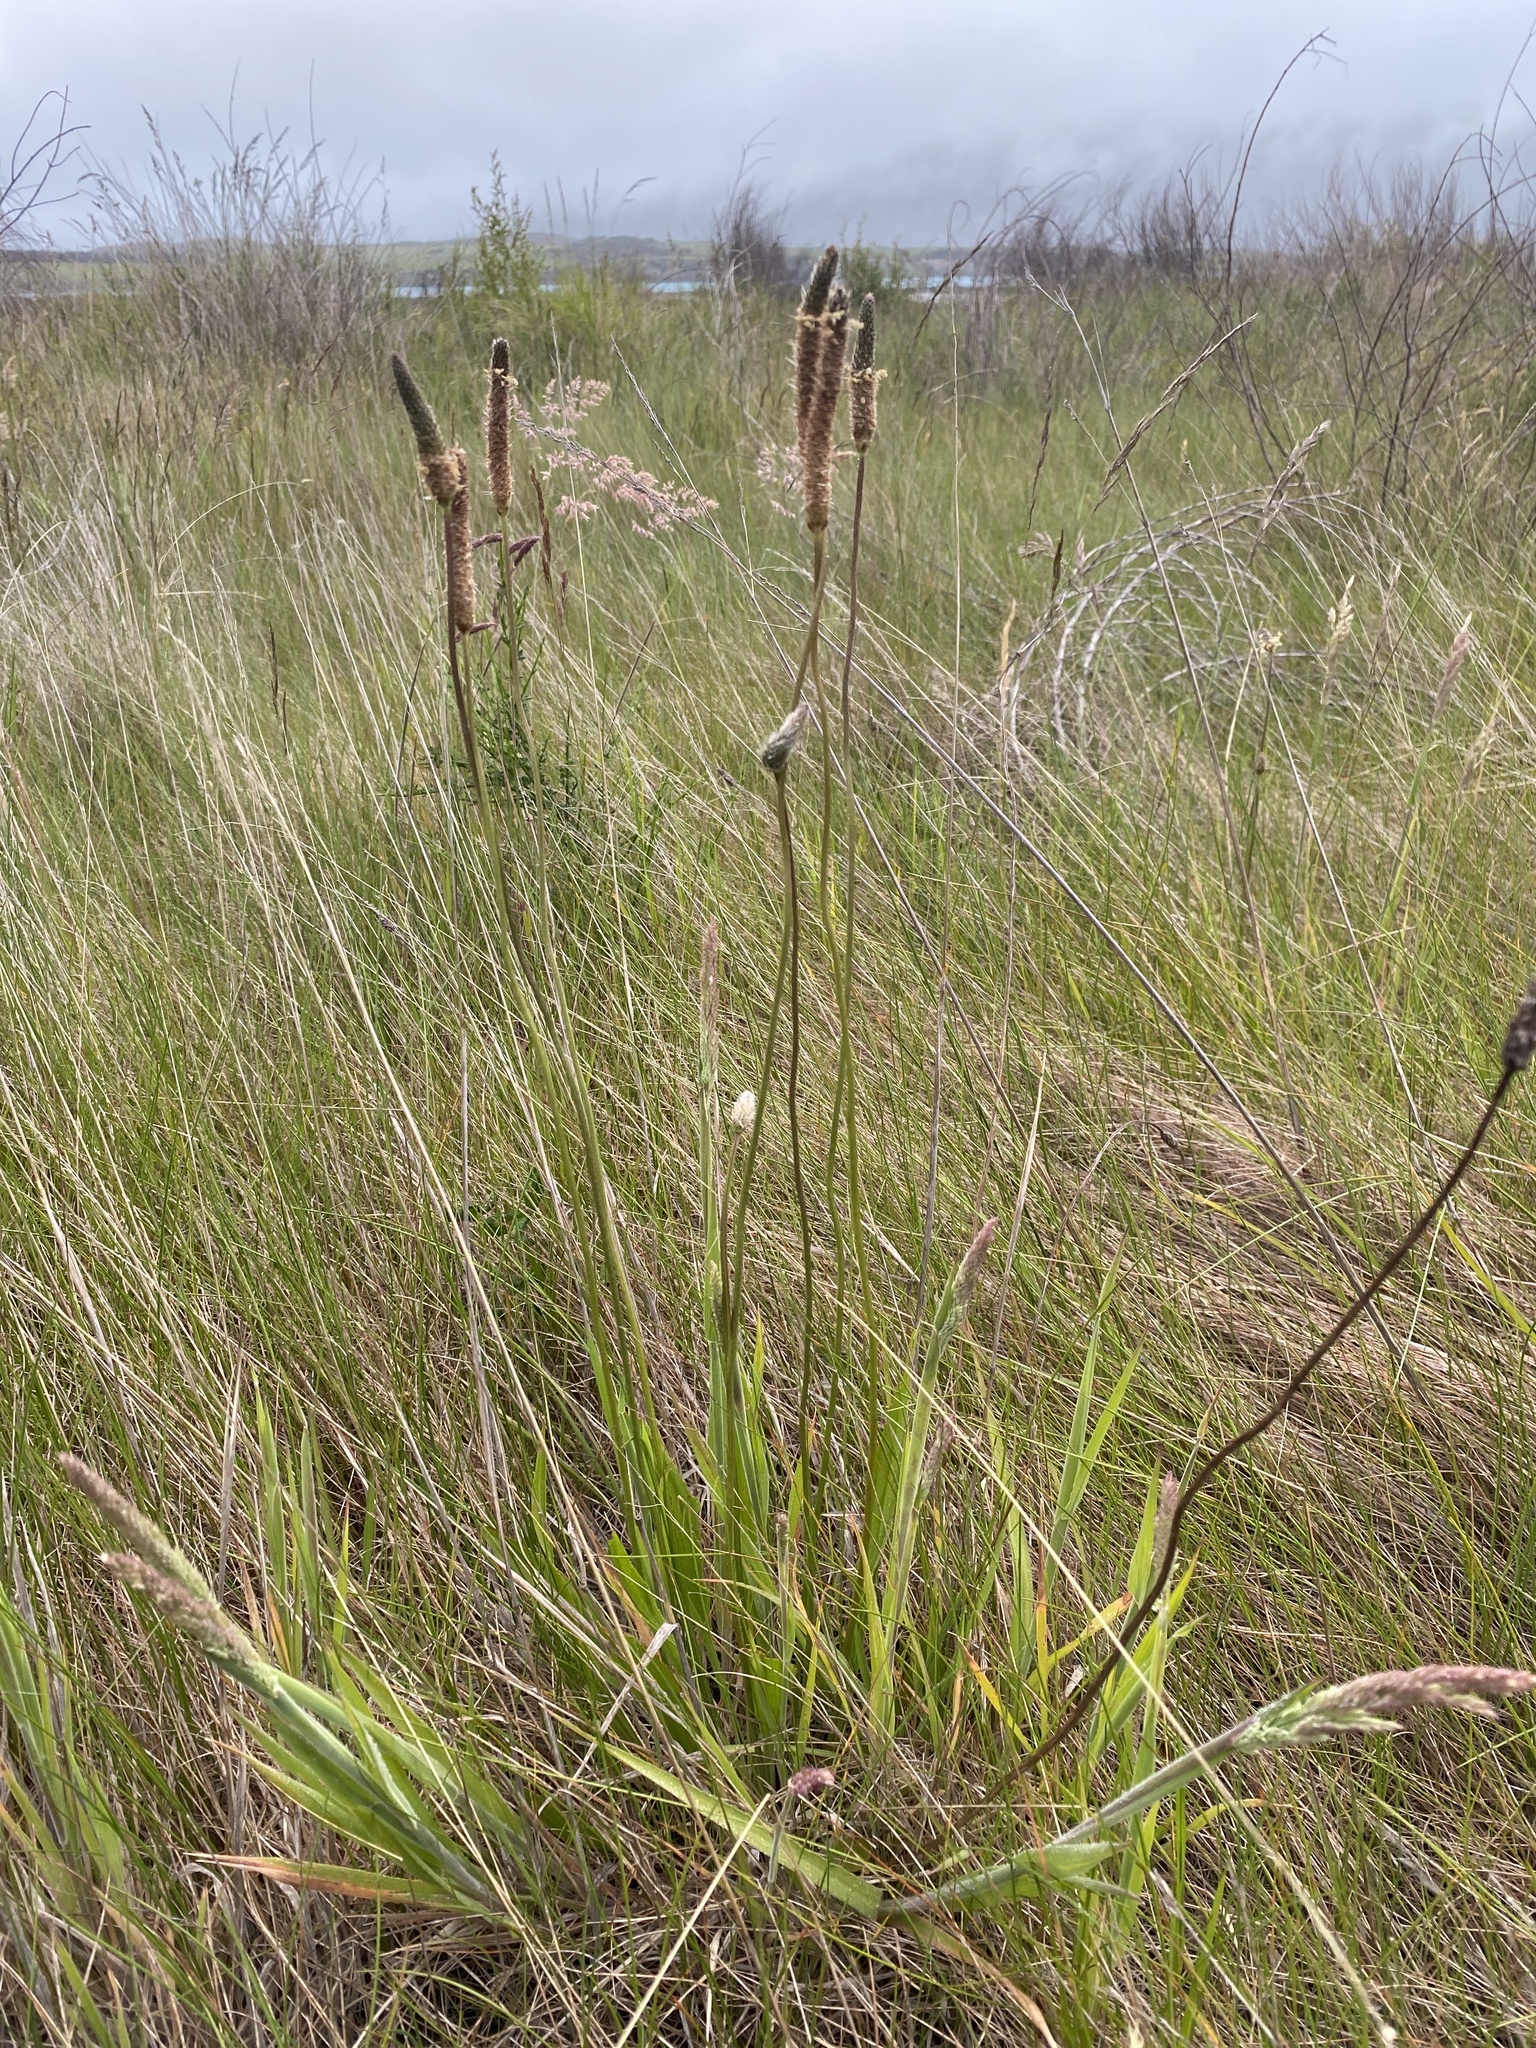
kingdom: Plantae
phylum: Tracheophyta
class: Magnoliopsida
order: Lamiales
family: Plantaginaceae
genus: Plantago
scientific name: Plantago lanceolata
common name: Ribwort plantain
